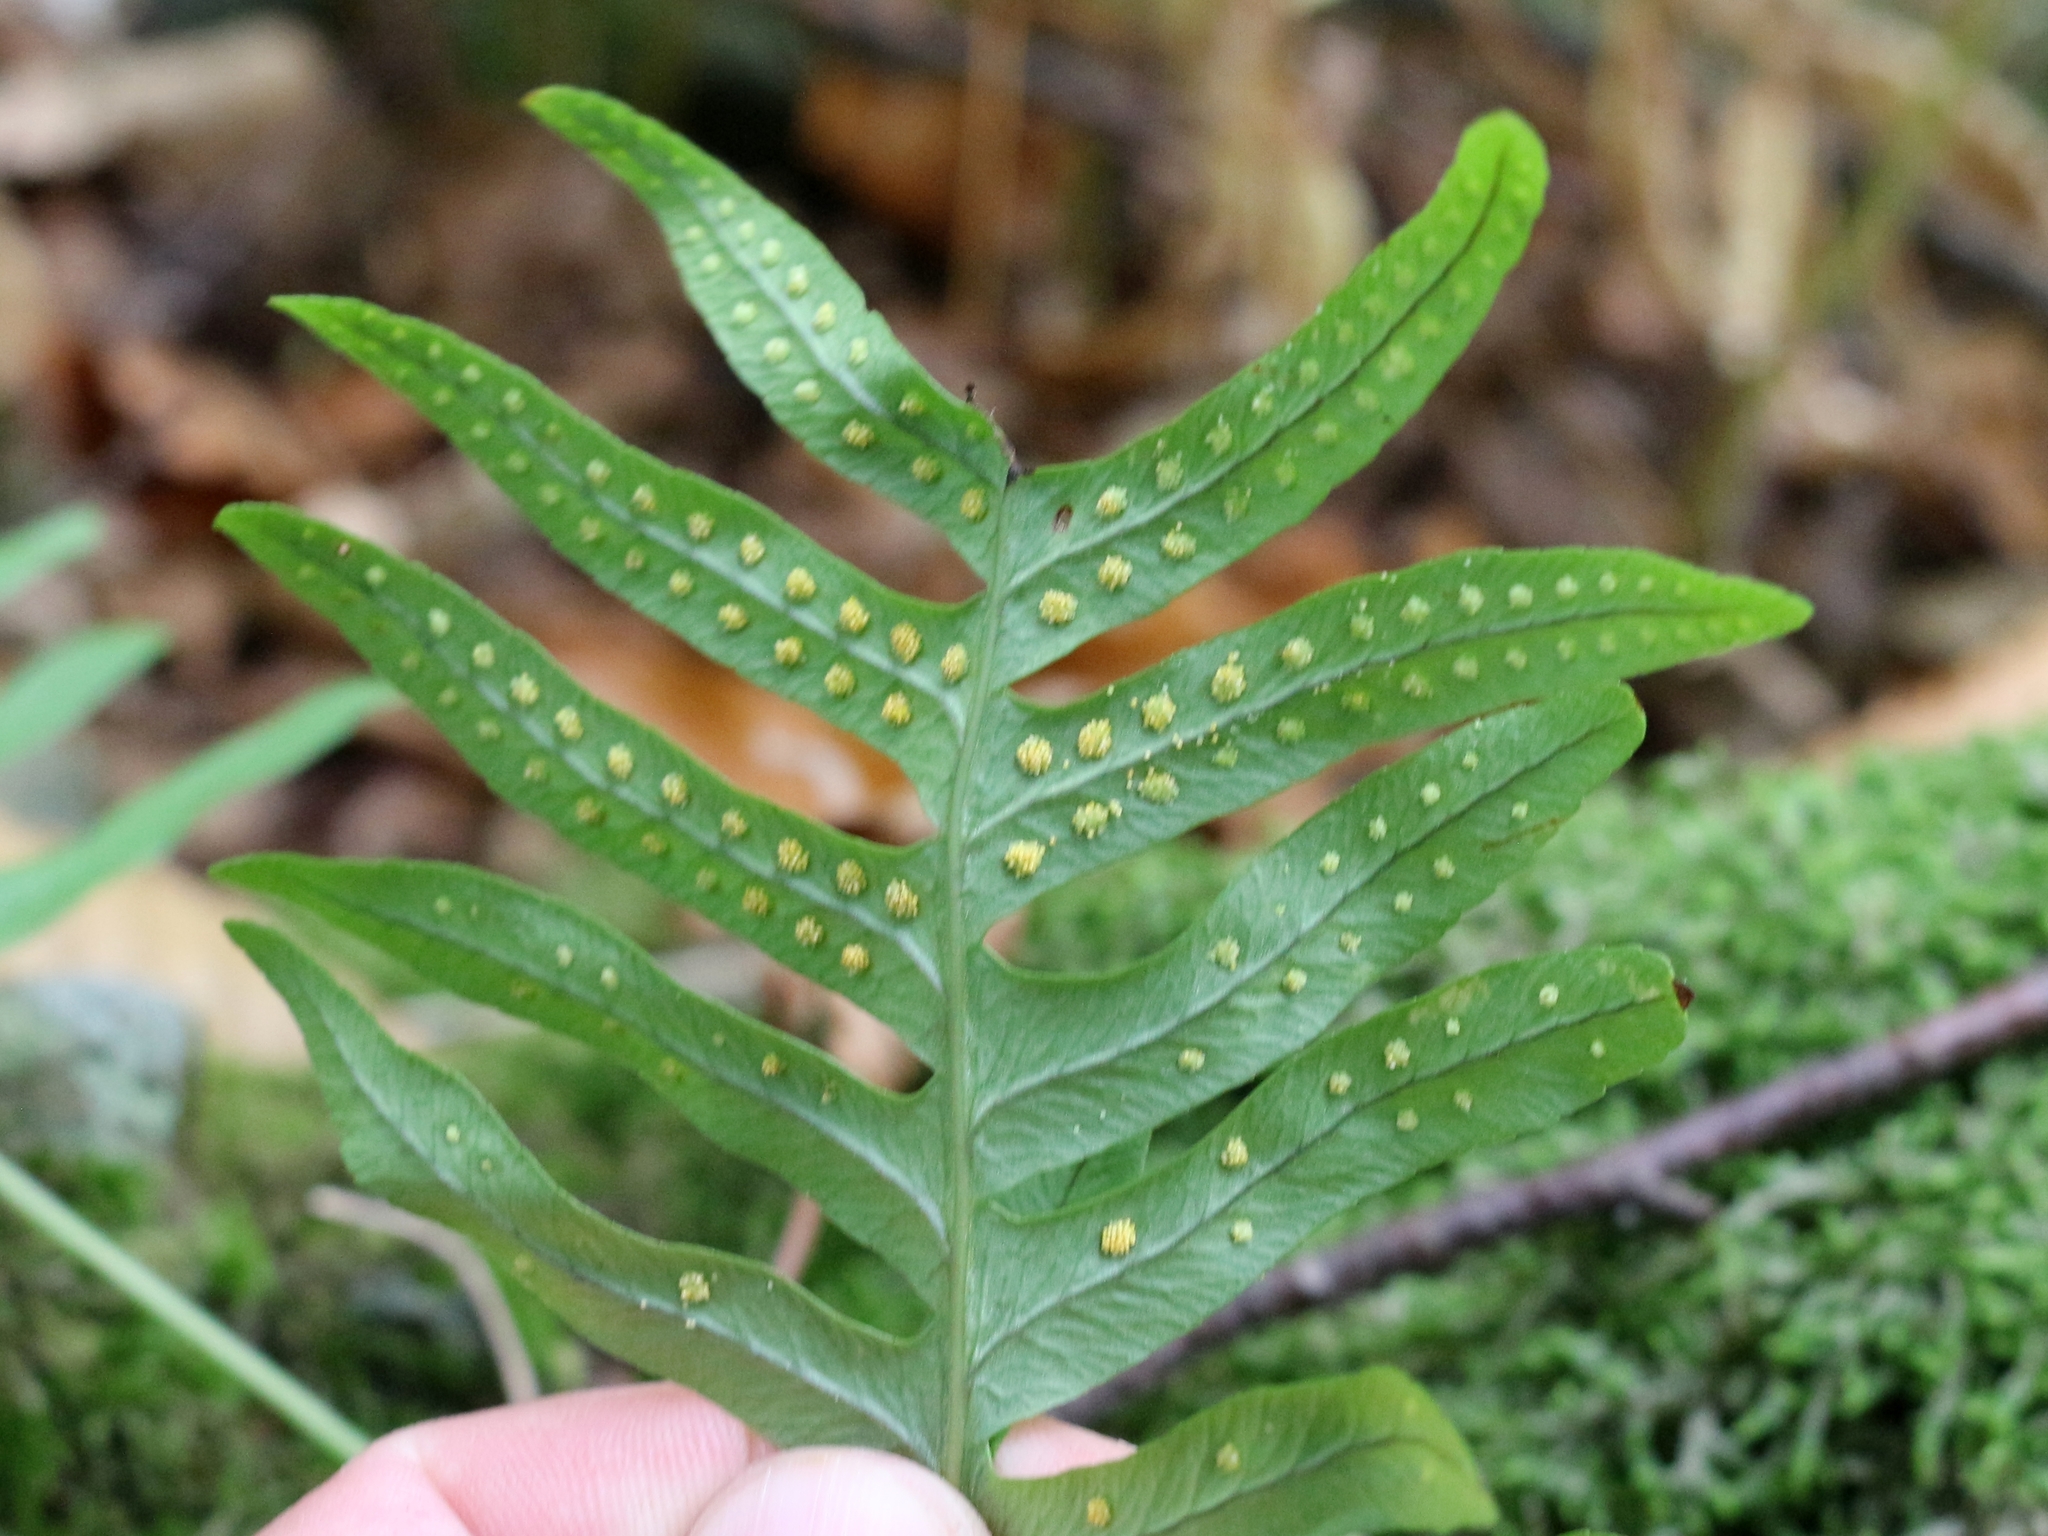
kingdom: Plantae
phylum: Tracheophyta
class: Polypodiopsida
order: Polypodiales
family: Polypodiaceae
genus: Polypodium
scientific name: Polypodium vulgare
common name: Common polypody
